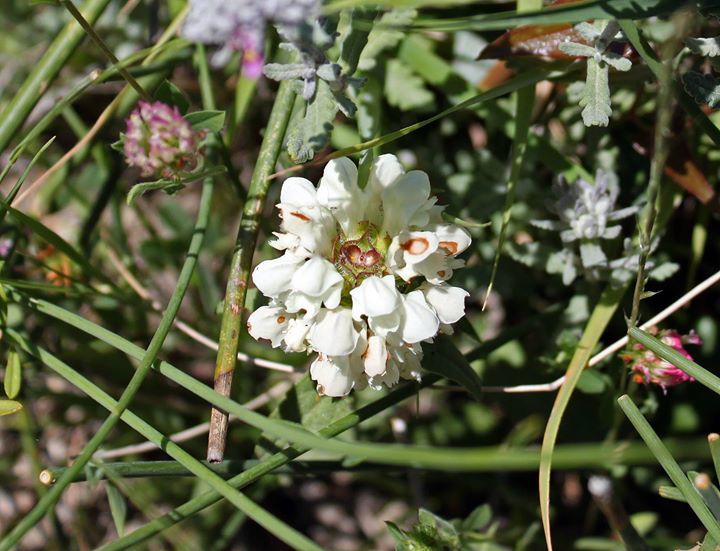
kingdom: Plantae
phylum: Tracheophyta
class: Magnoliopsida
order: Lamiales
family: Lamiaceae
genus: Prunella
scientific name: Prunella laciniata
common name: Cut-leaved selfheal
